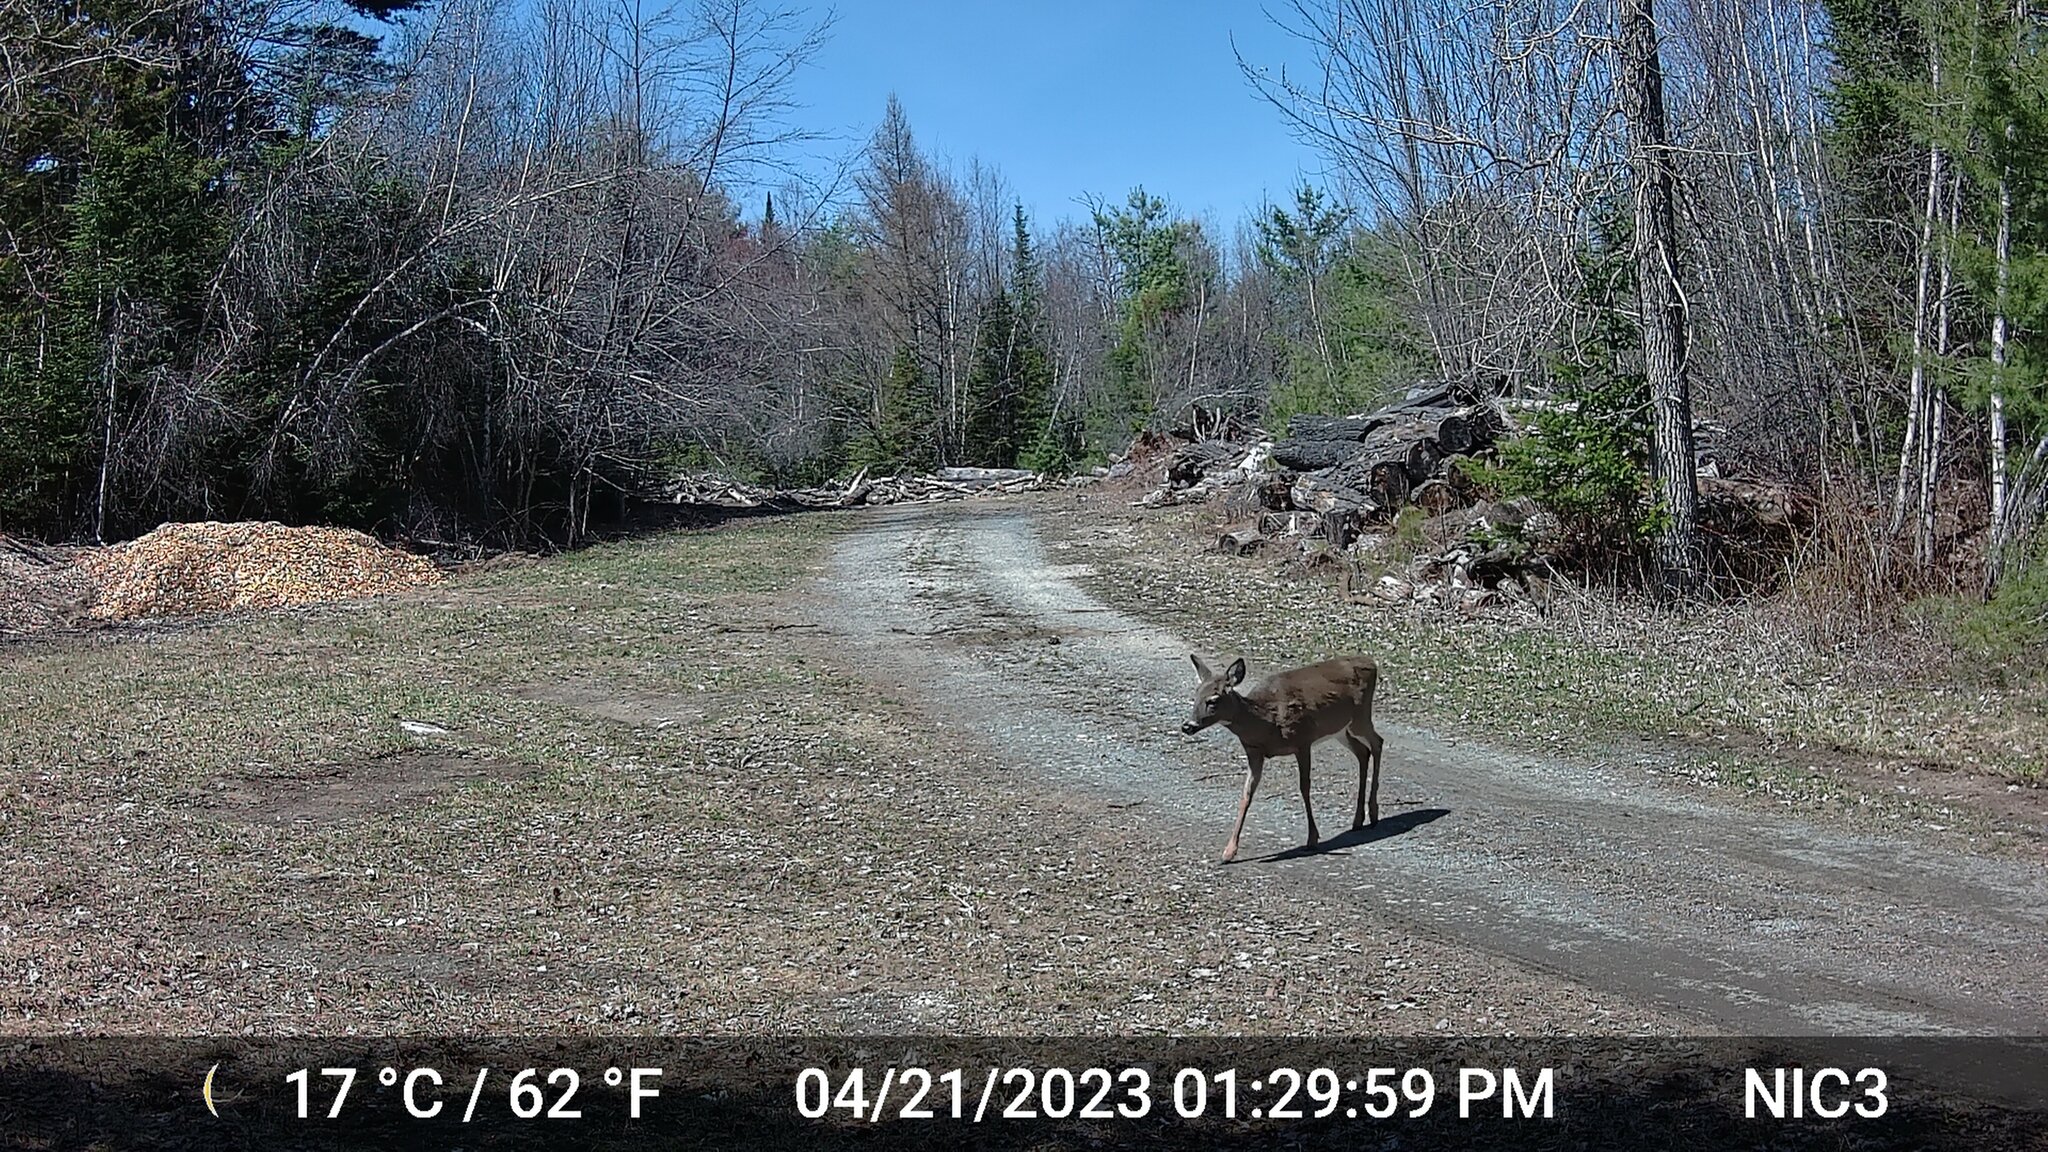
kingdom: Animalia
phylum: Chordata
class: Mammalia
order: Artiodactyla
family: Cervidae
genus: Odocoileus
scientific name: Odocoileus virginianus
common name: White-tailed deer
